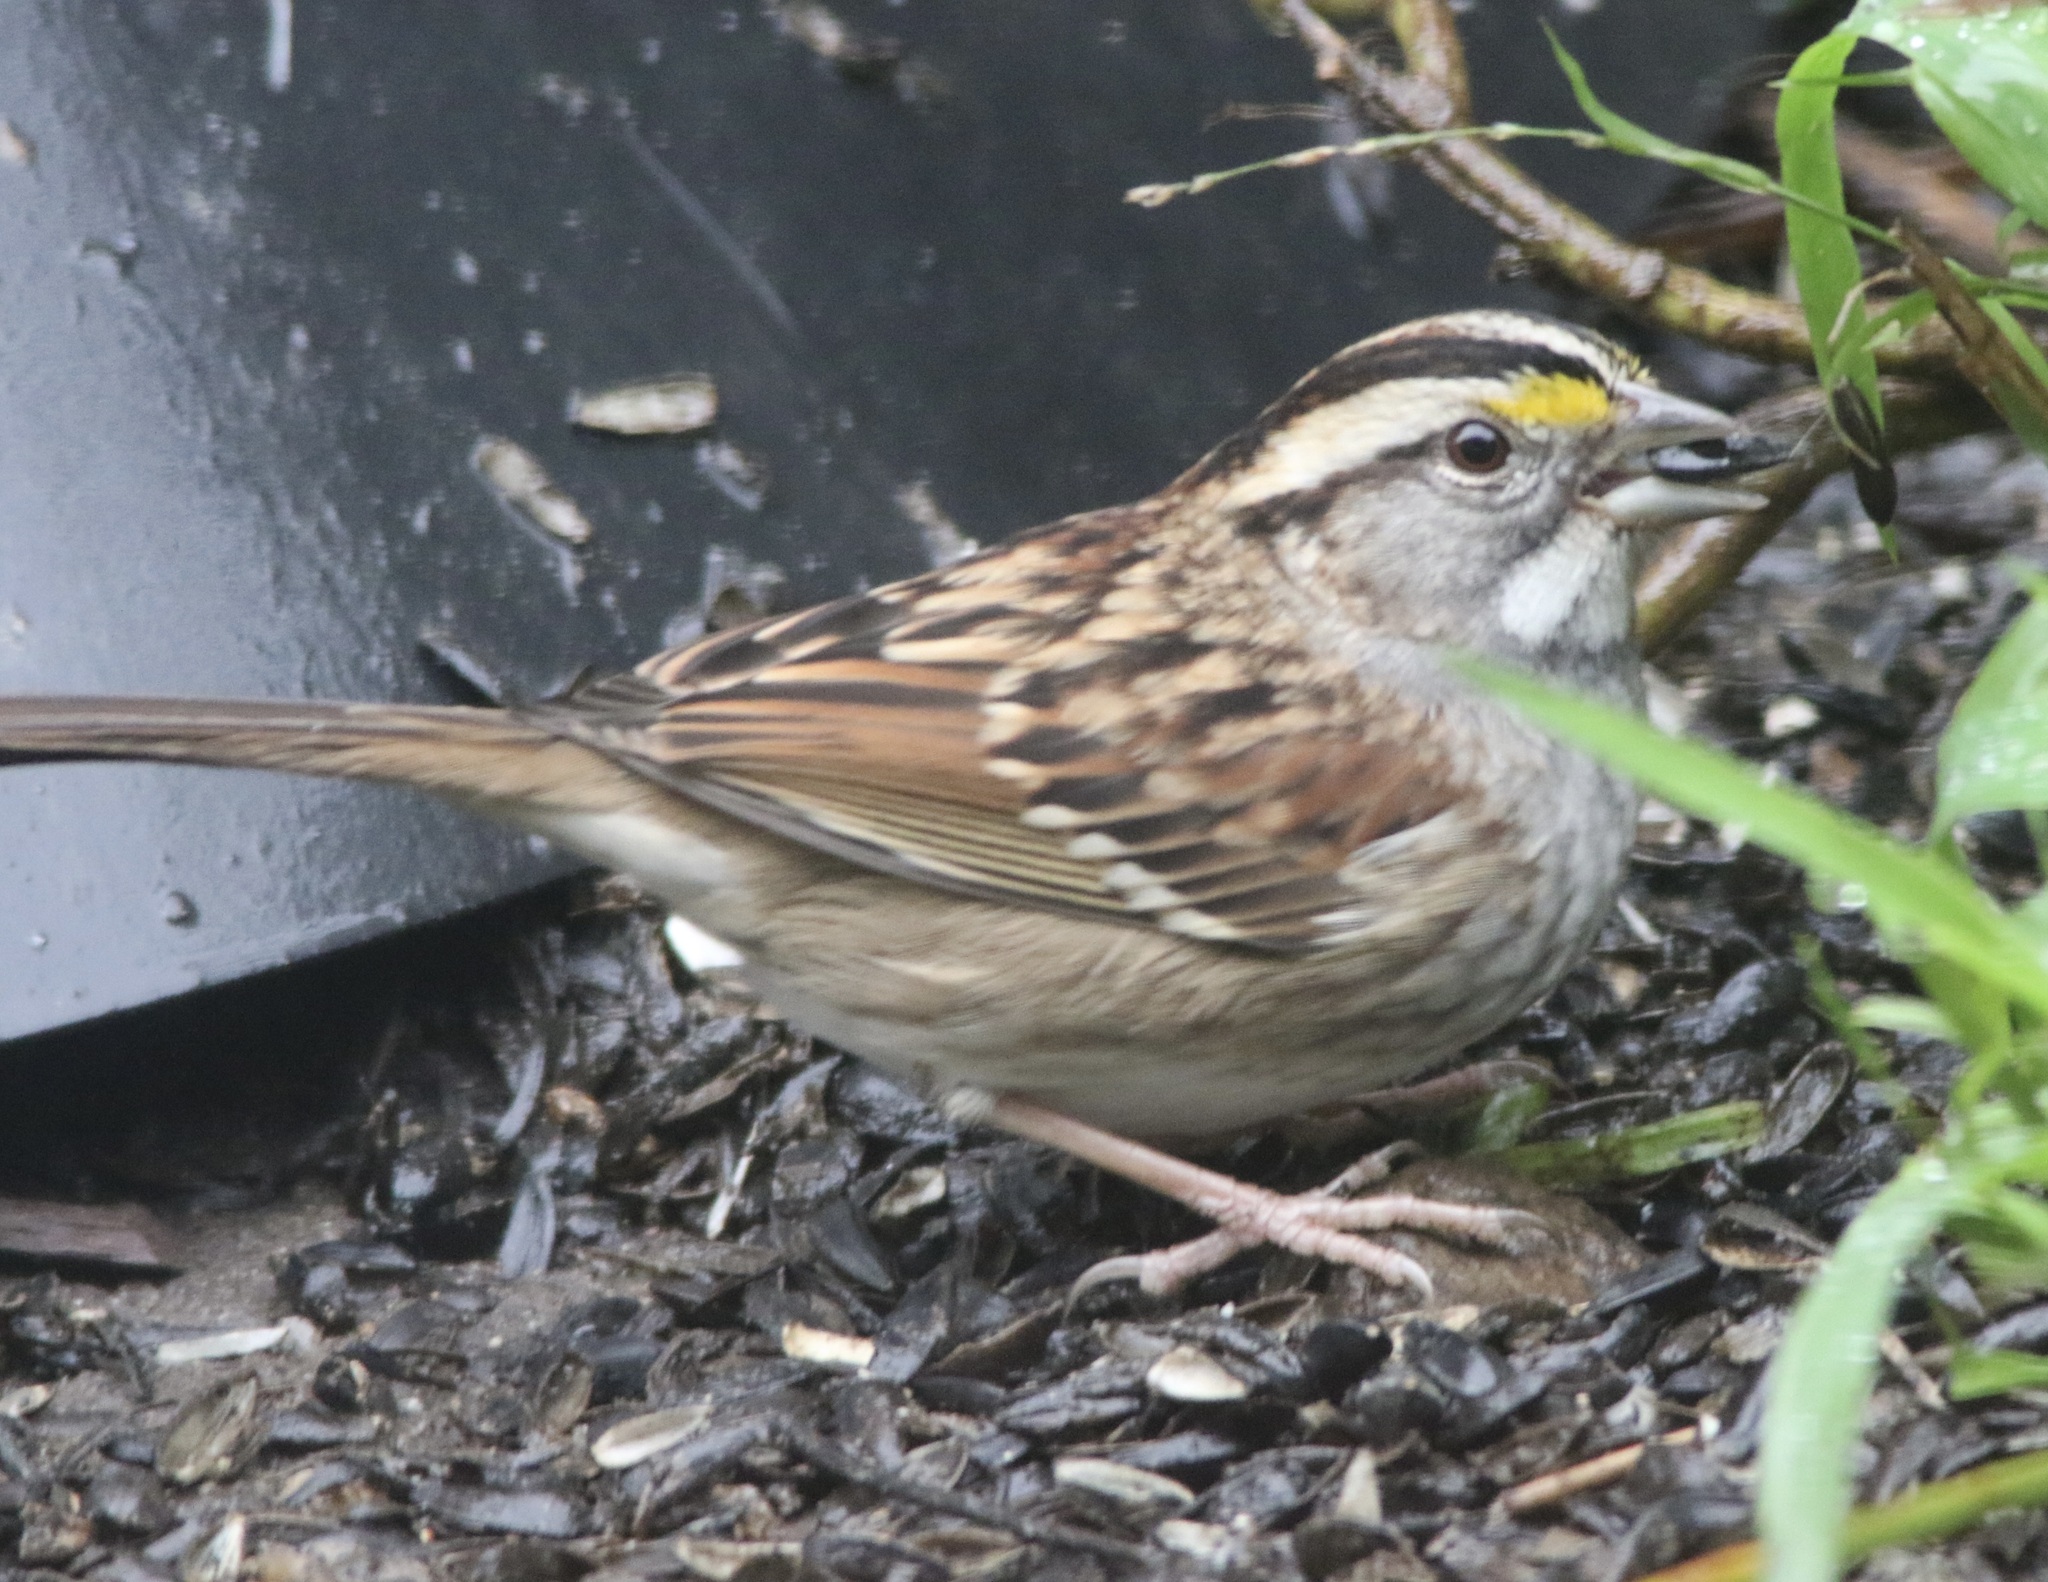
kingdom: Animalia
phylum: Chordata
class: Aves
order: Passeriformes
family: Passerellidae
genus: Zonotrichia
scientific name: Zonotrichia albicollis
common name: White-throated sparrow
